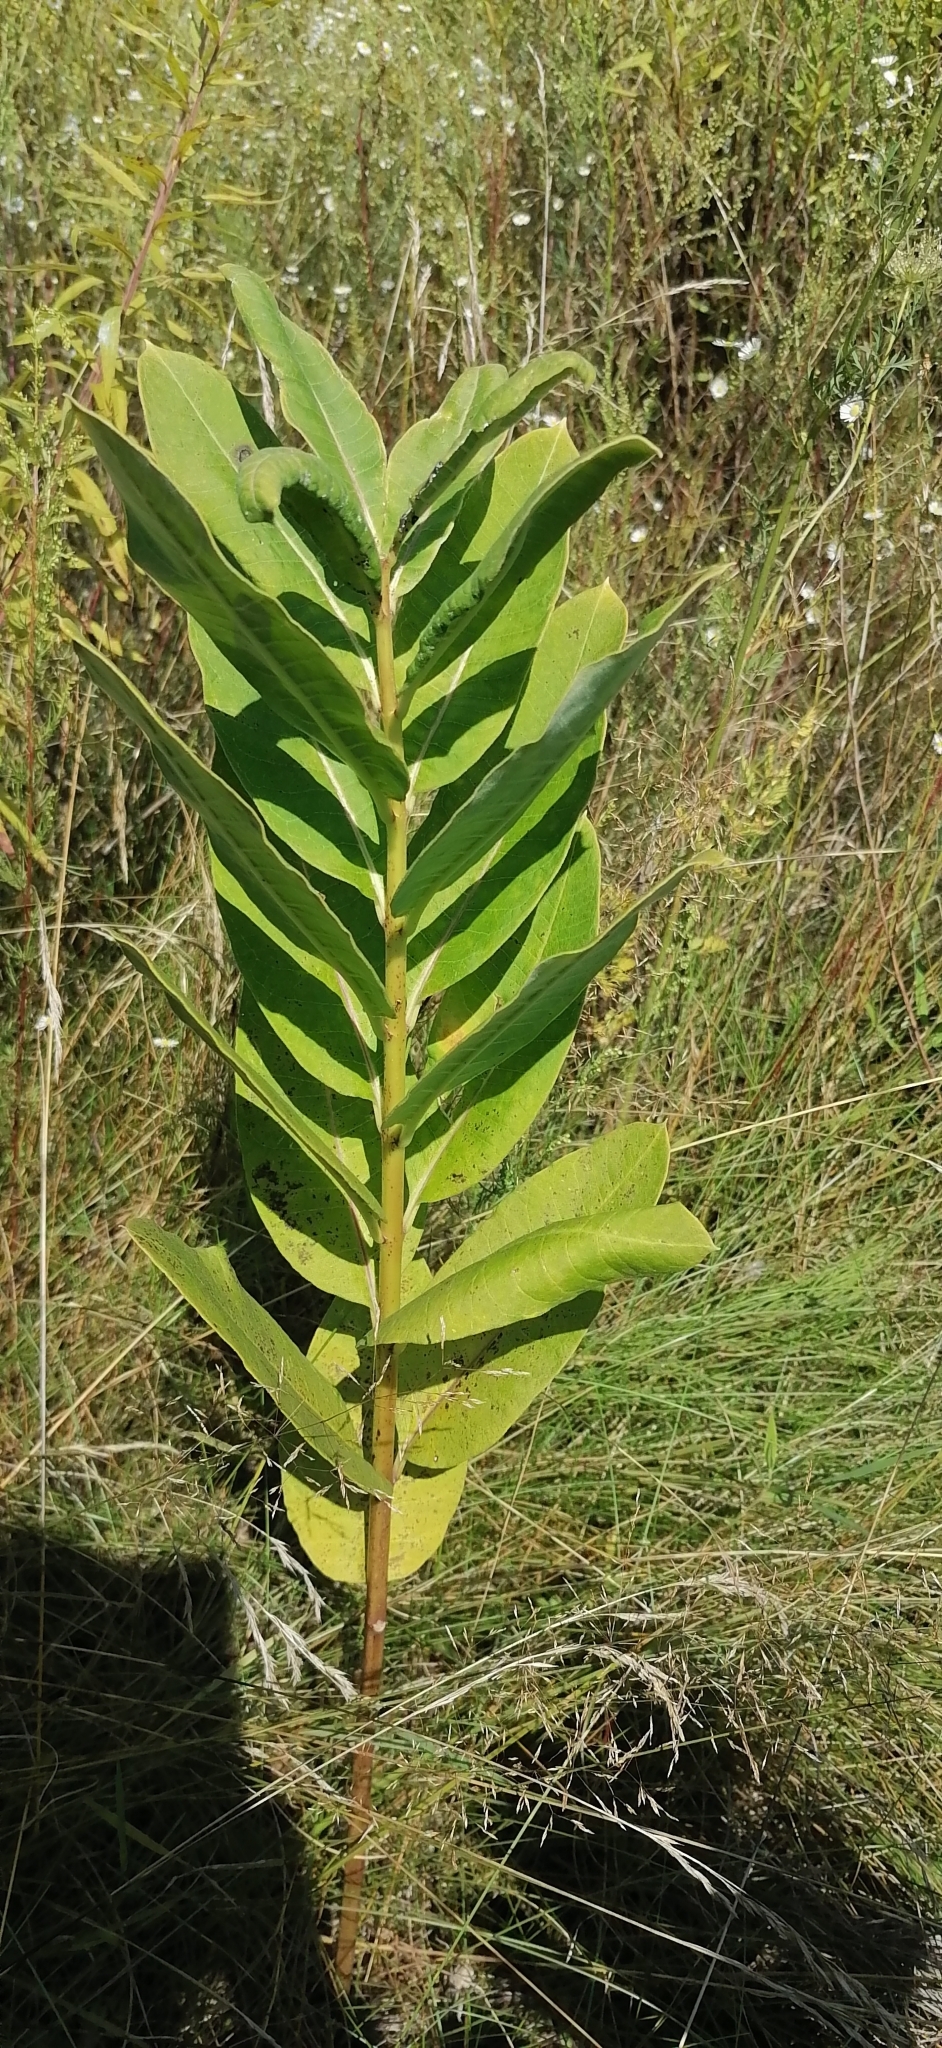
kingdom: Plantae
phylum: Tracheophyta
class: Magnoliopsida
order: Gentianales
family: Apocynaceae
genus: Asclepias
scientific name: Asclepias syriaca
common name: Common milkweed
